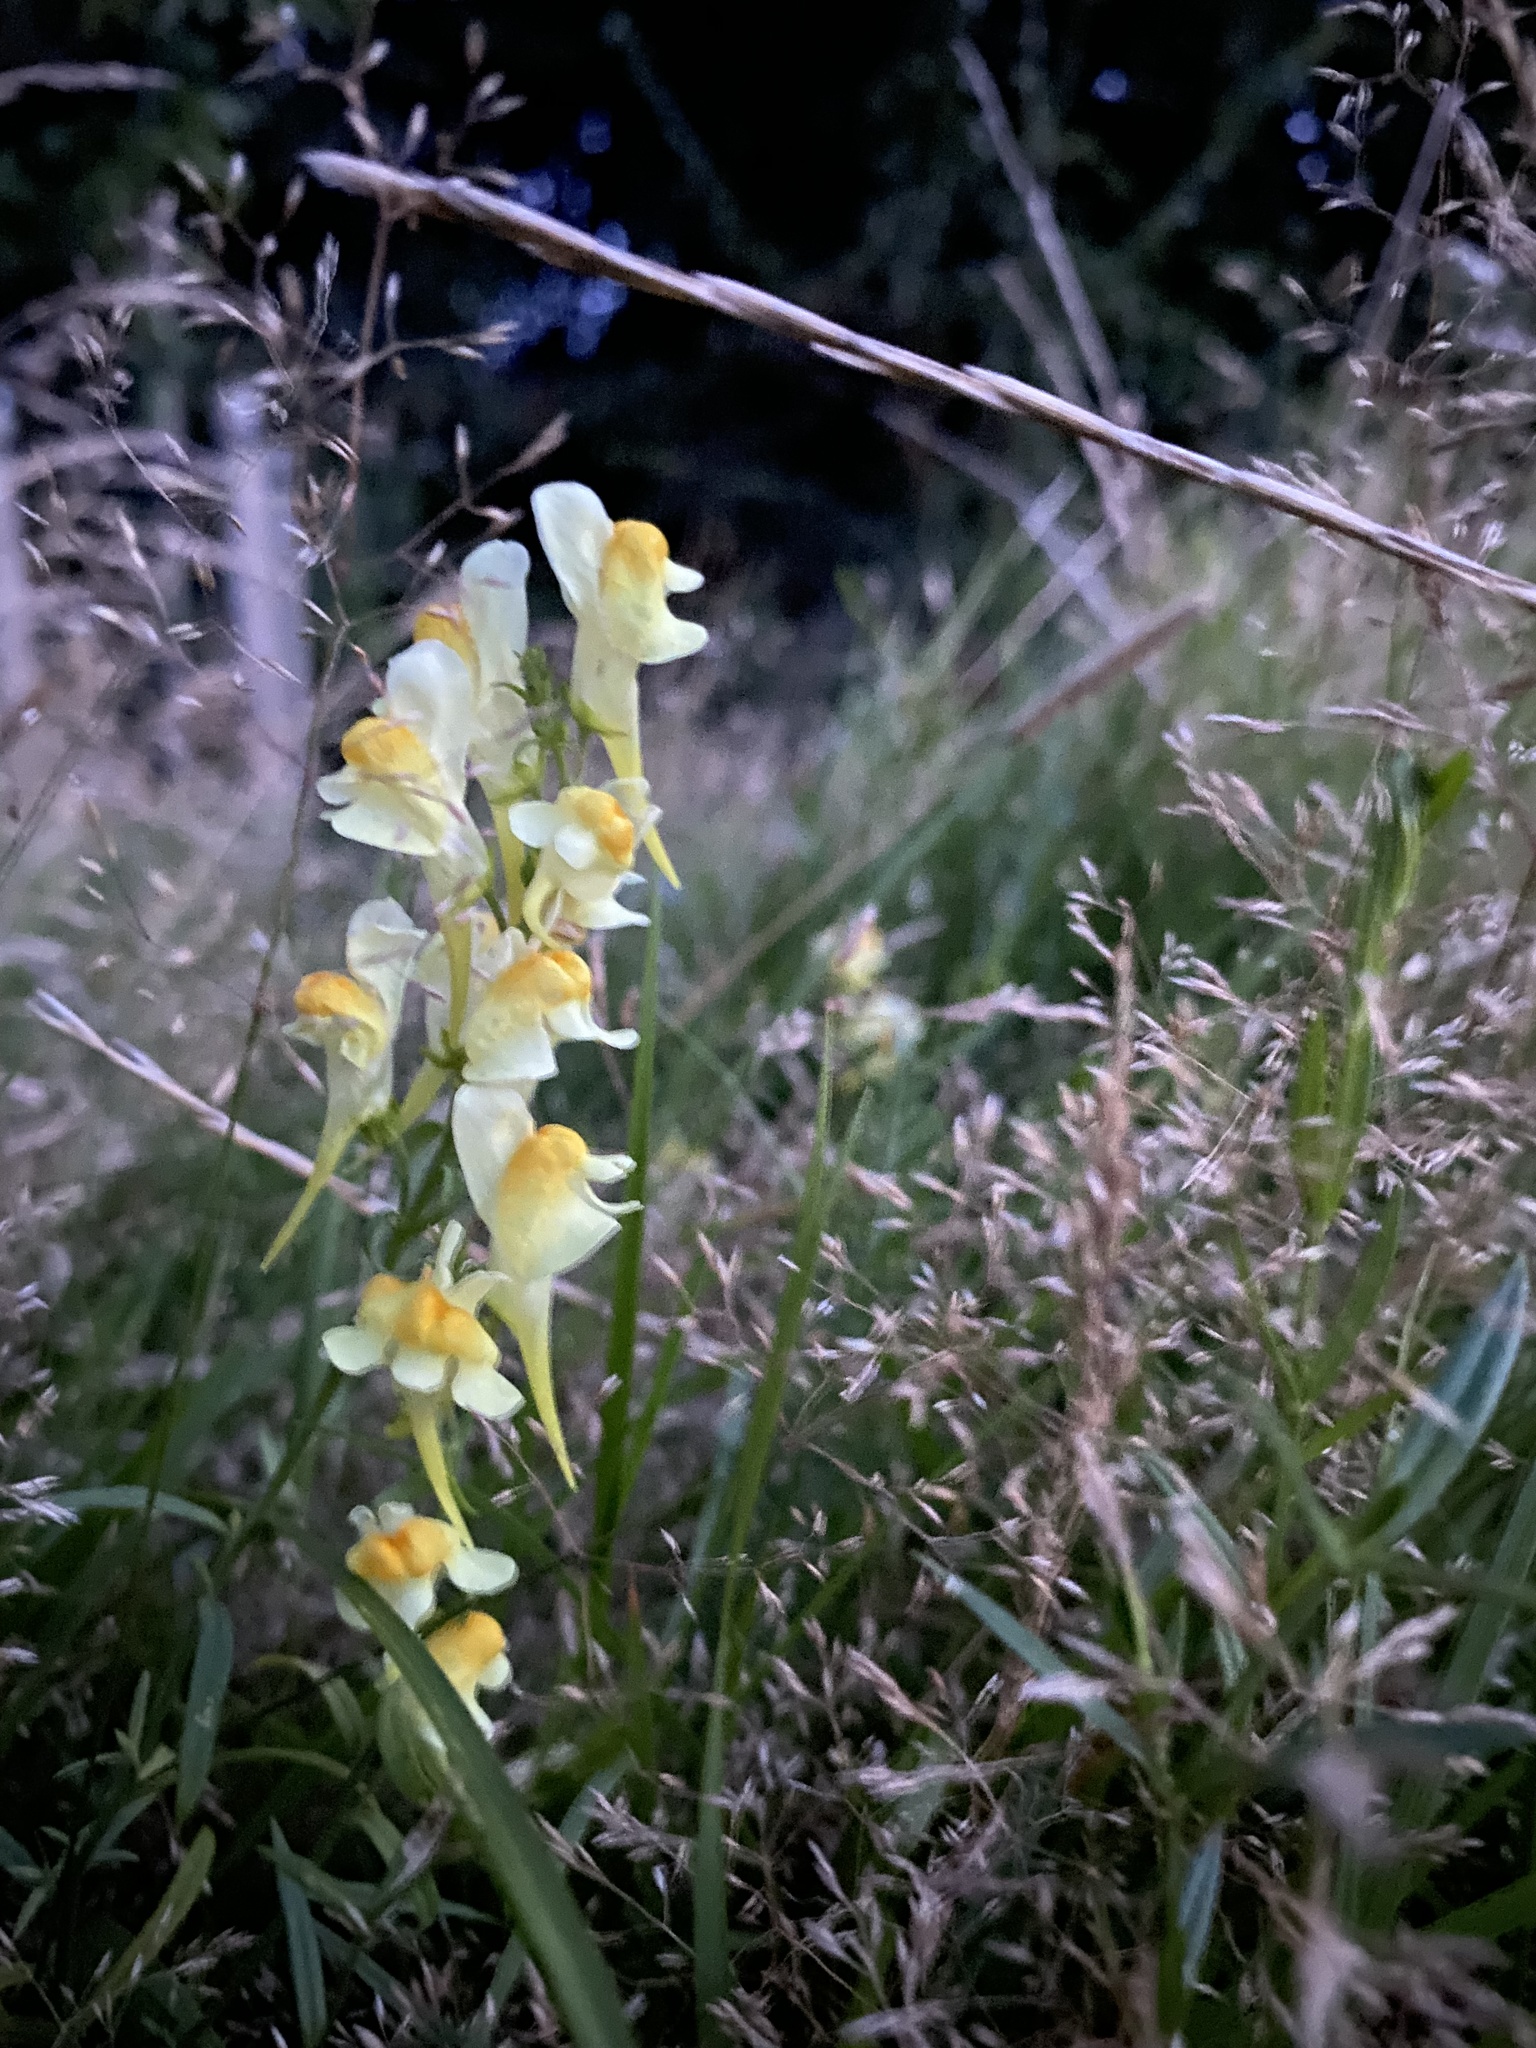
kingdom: Plantae
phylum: Tracheophyta
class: Magnoliopsida
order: Lamiales
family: Plantaginaceae
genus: Linaria
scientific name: Linaria vulgaris
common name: Butter and eggs
